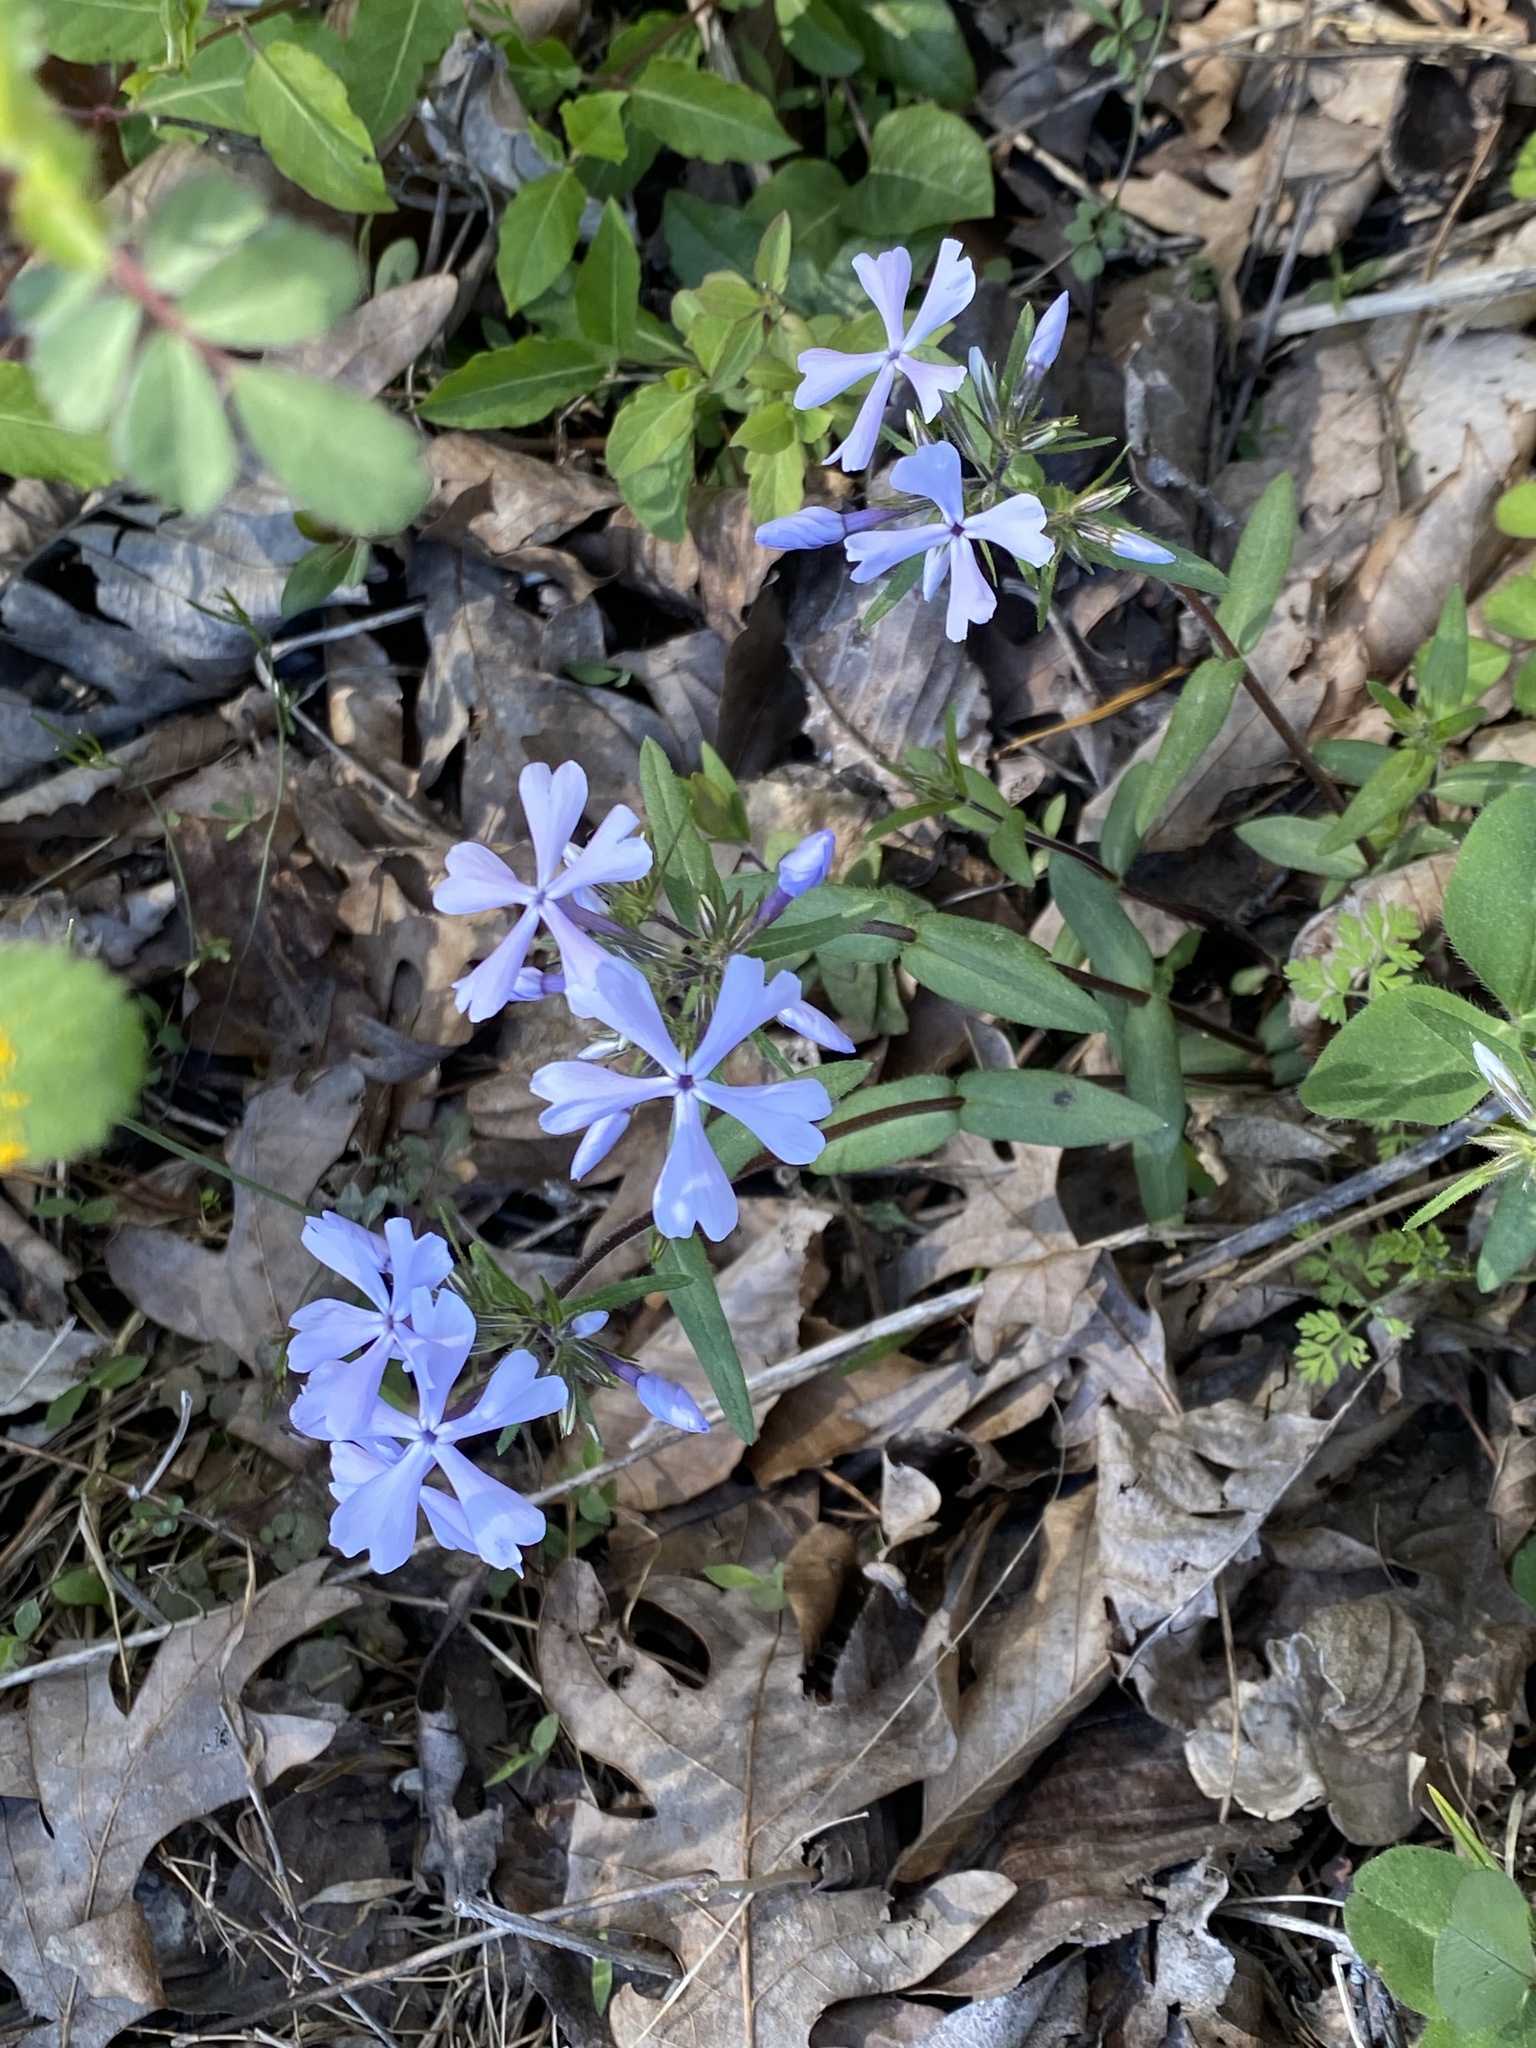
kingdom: Plantae
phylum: Tracheophyta
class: Magnoliopsida
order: Ericales
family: Polemoniaceae
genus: Phlox
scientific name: Phlox divaricata
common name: Blue phlox
